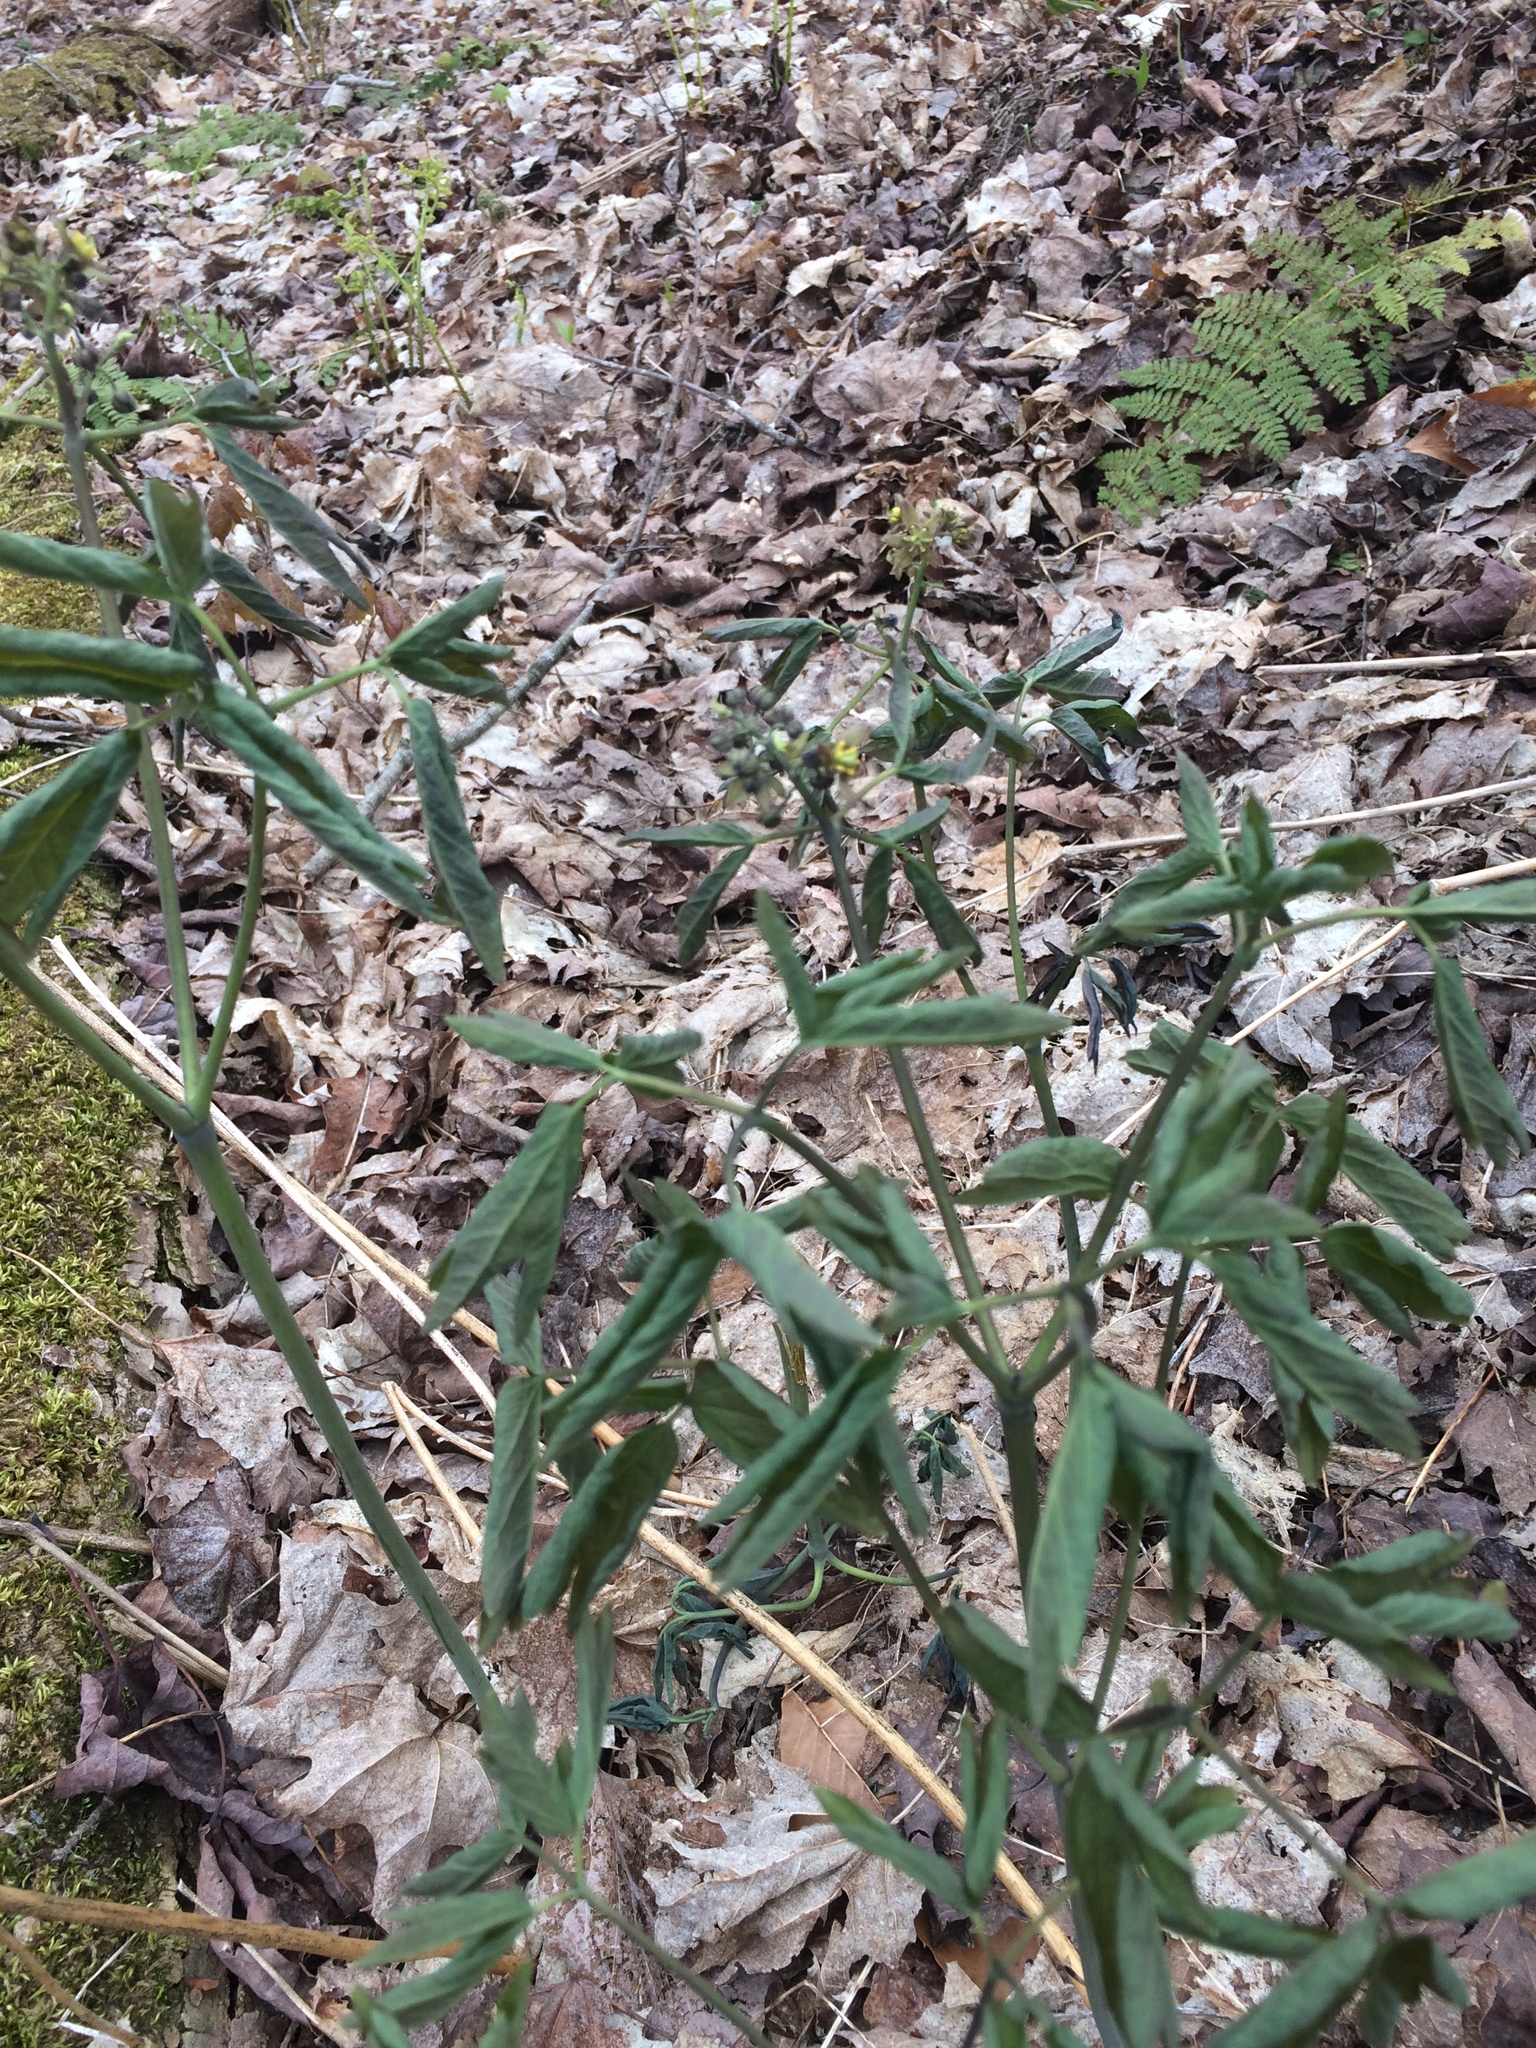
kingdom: Plantae
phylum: Tracheophyta
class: Magnoliopsida
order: Ranunculales
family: Berberidaceae
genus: Caulophyllum
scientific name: Caulophyllum giganteum
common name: Blue cohosh
